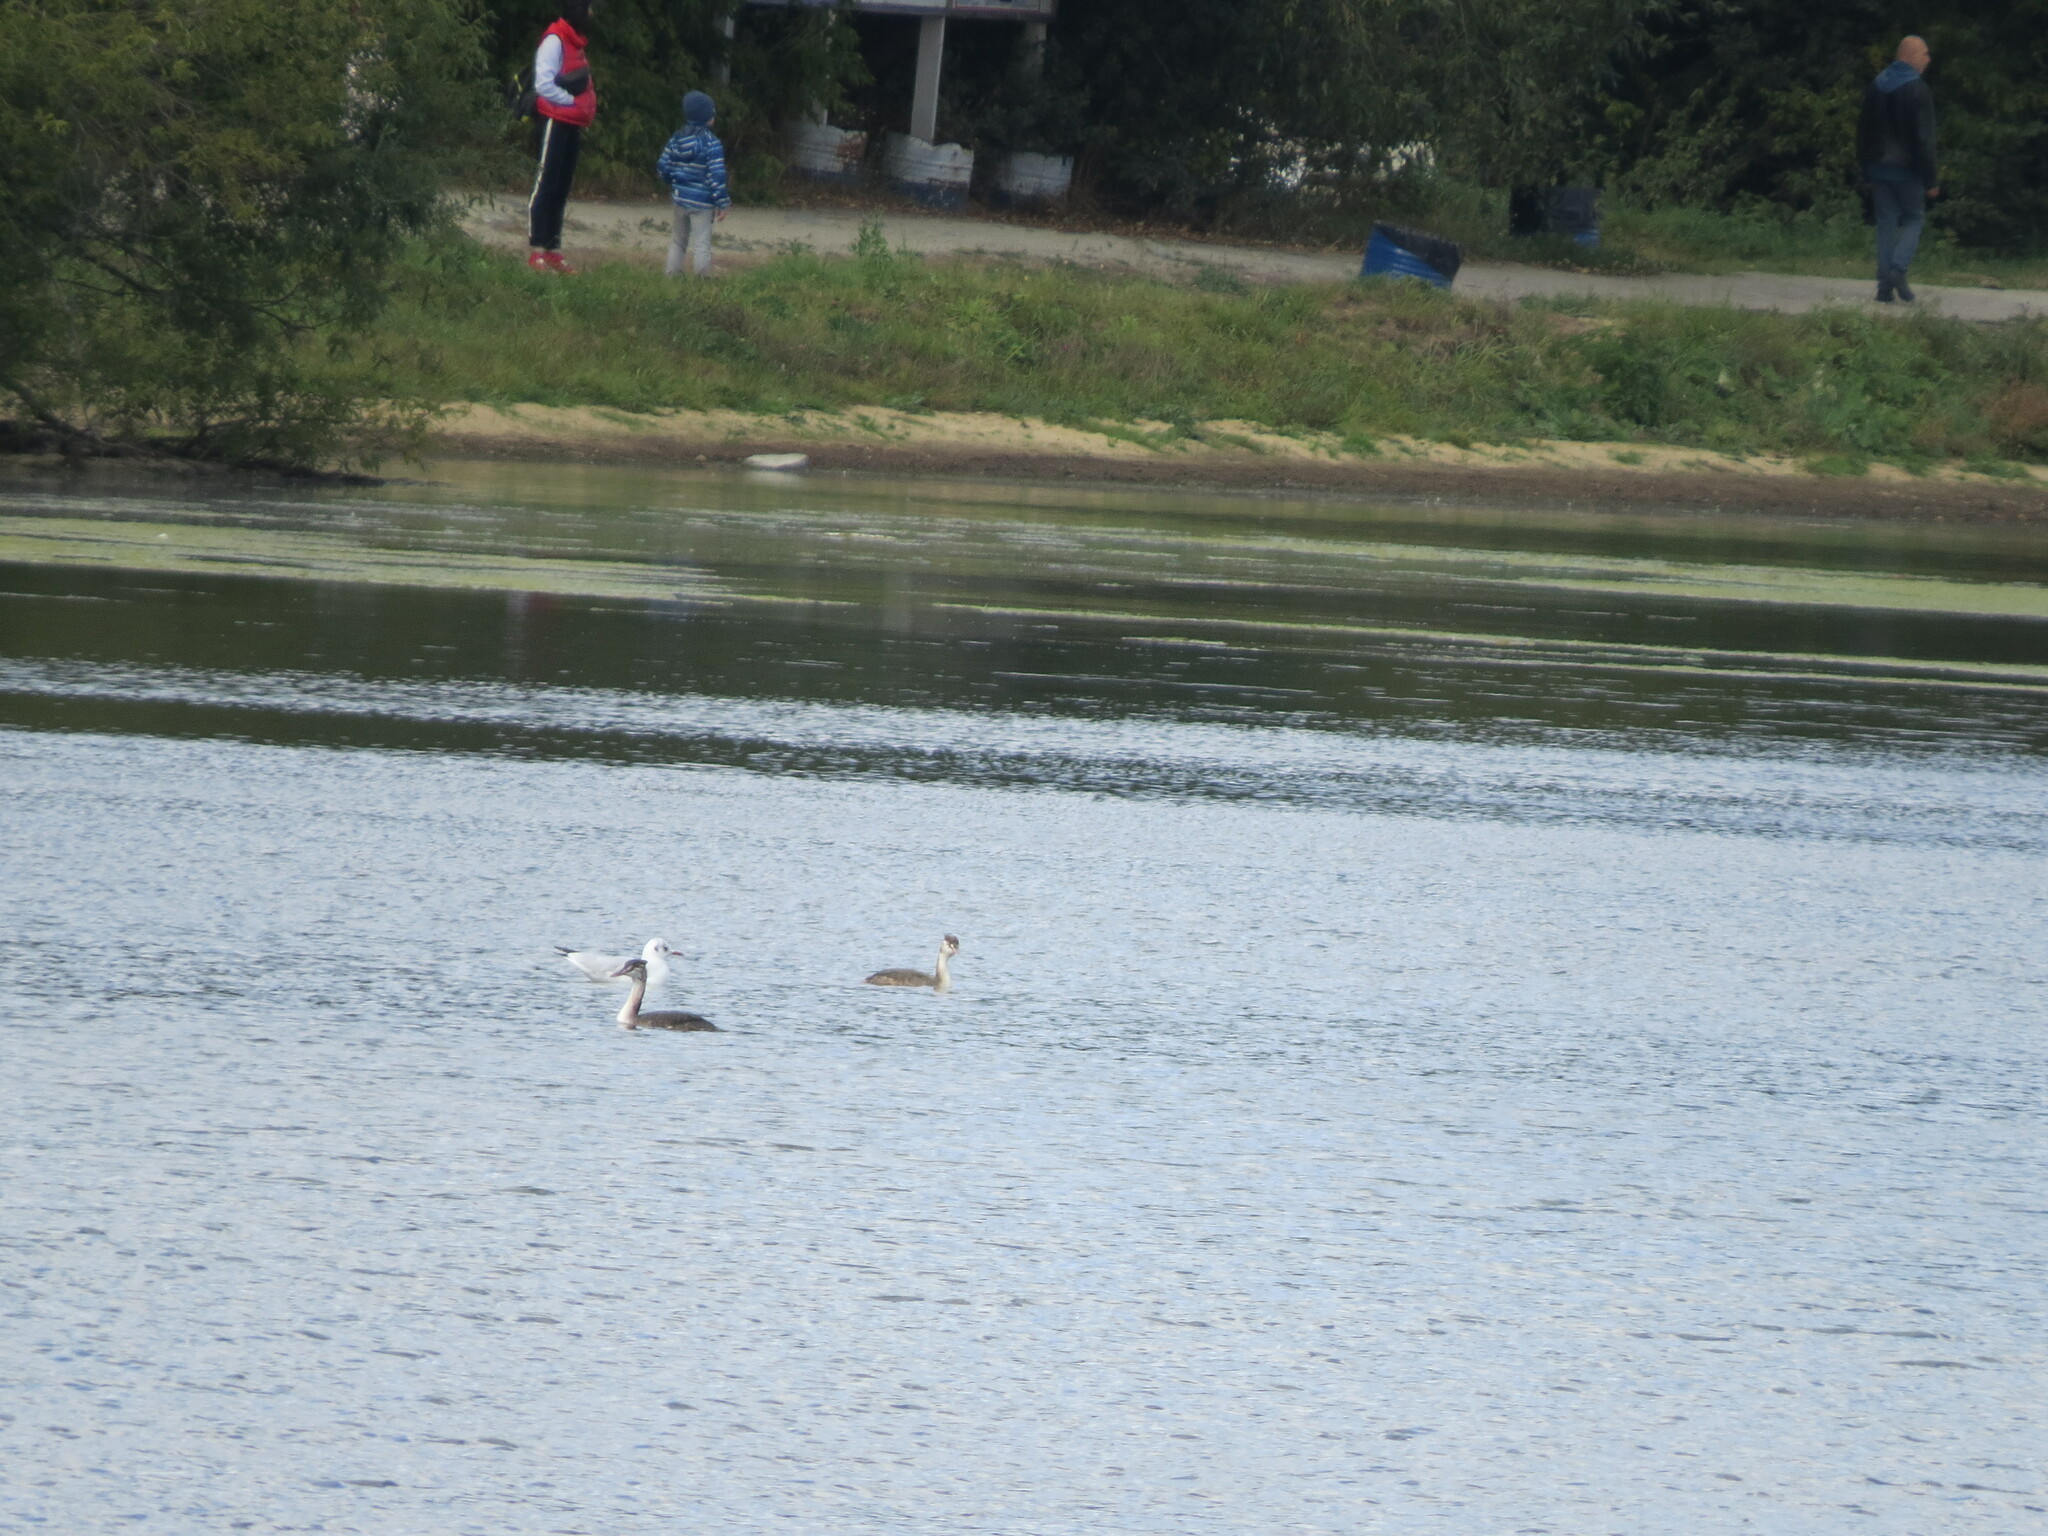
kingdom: Animalia
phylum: Chordata
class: Aves
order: Podicipediformes
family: Podicipedidae
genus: Podiceps
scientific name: Podiceps cristatus
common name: Great crested grebe
